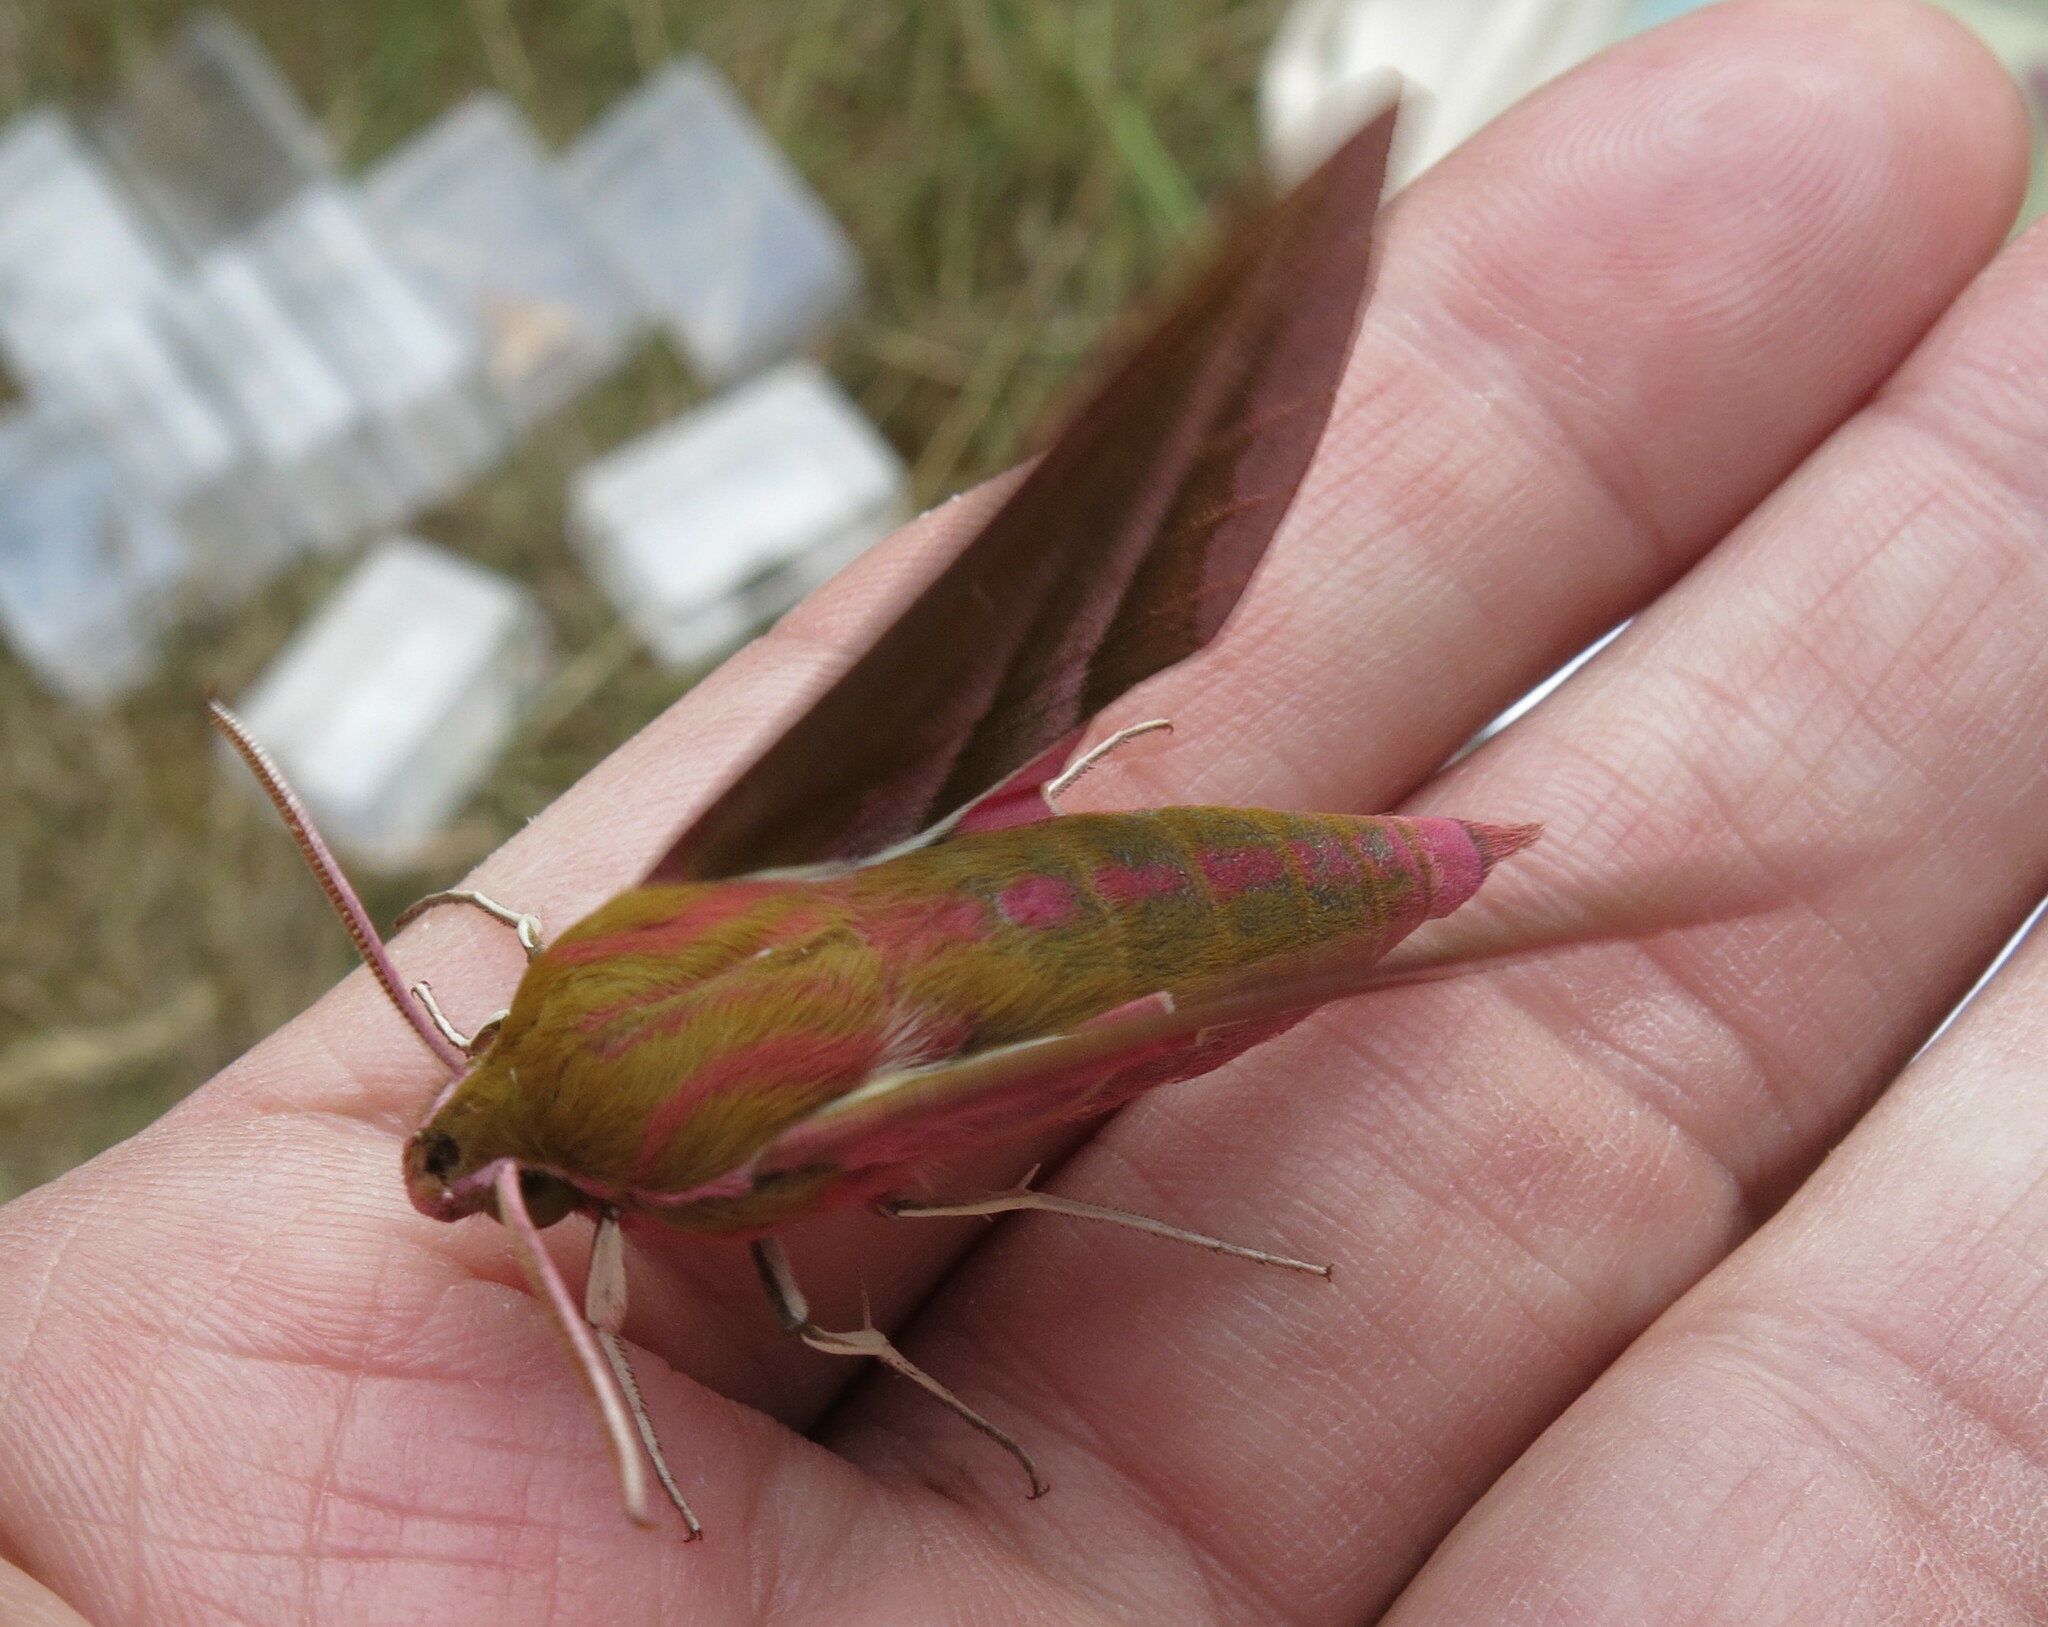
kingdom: Animalia
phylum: Arthropoda
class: Insecta
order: Lepidoptera
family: Sphingidae
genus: Deilephila
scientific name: Deilephila elpenor
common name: Elephant hawk-moth
